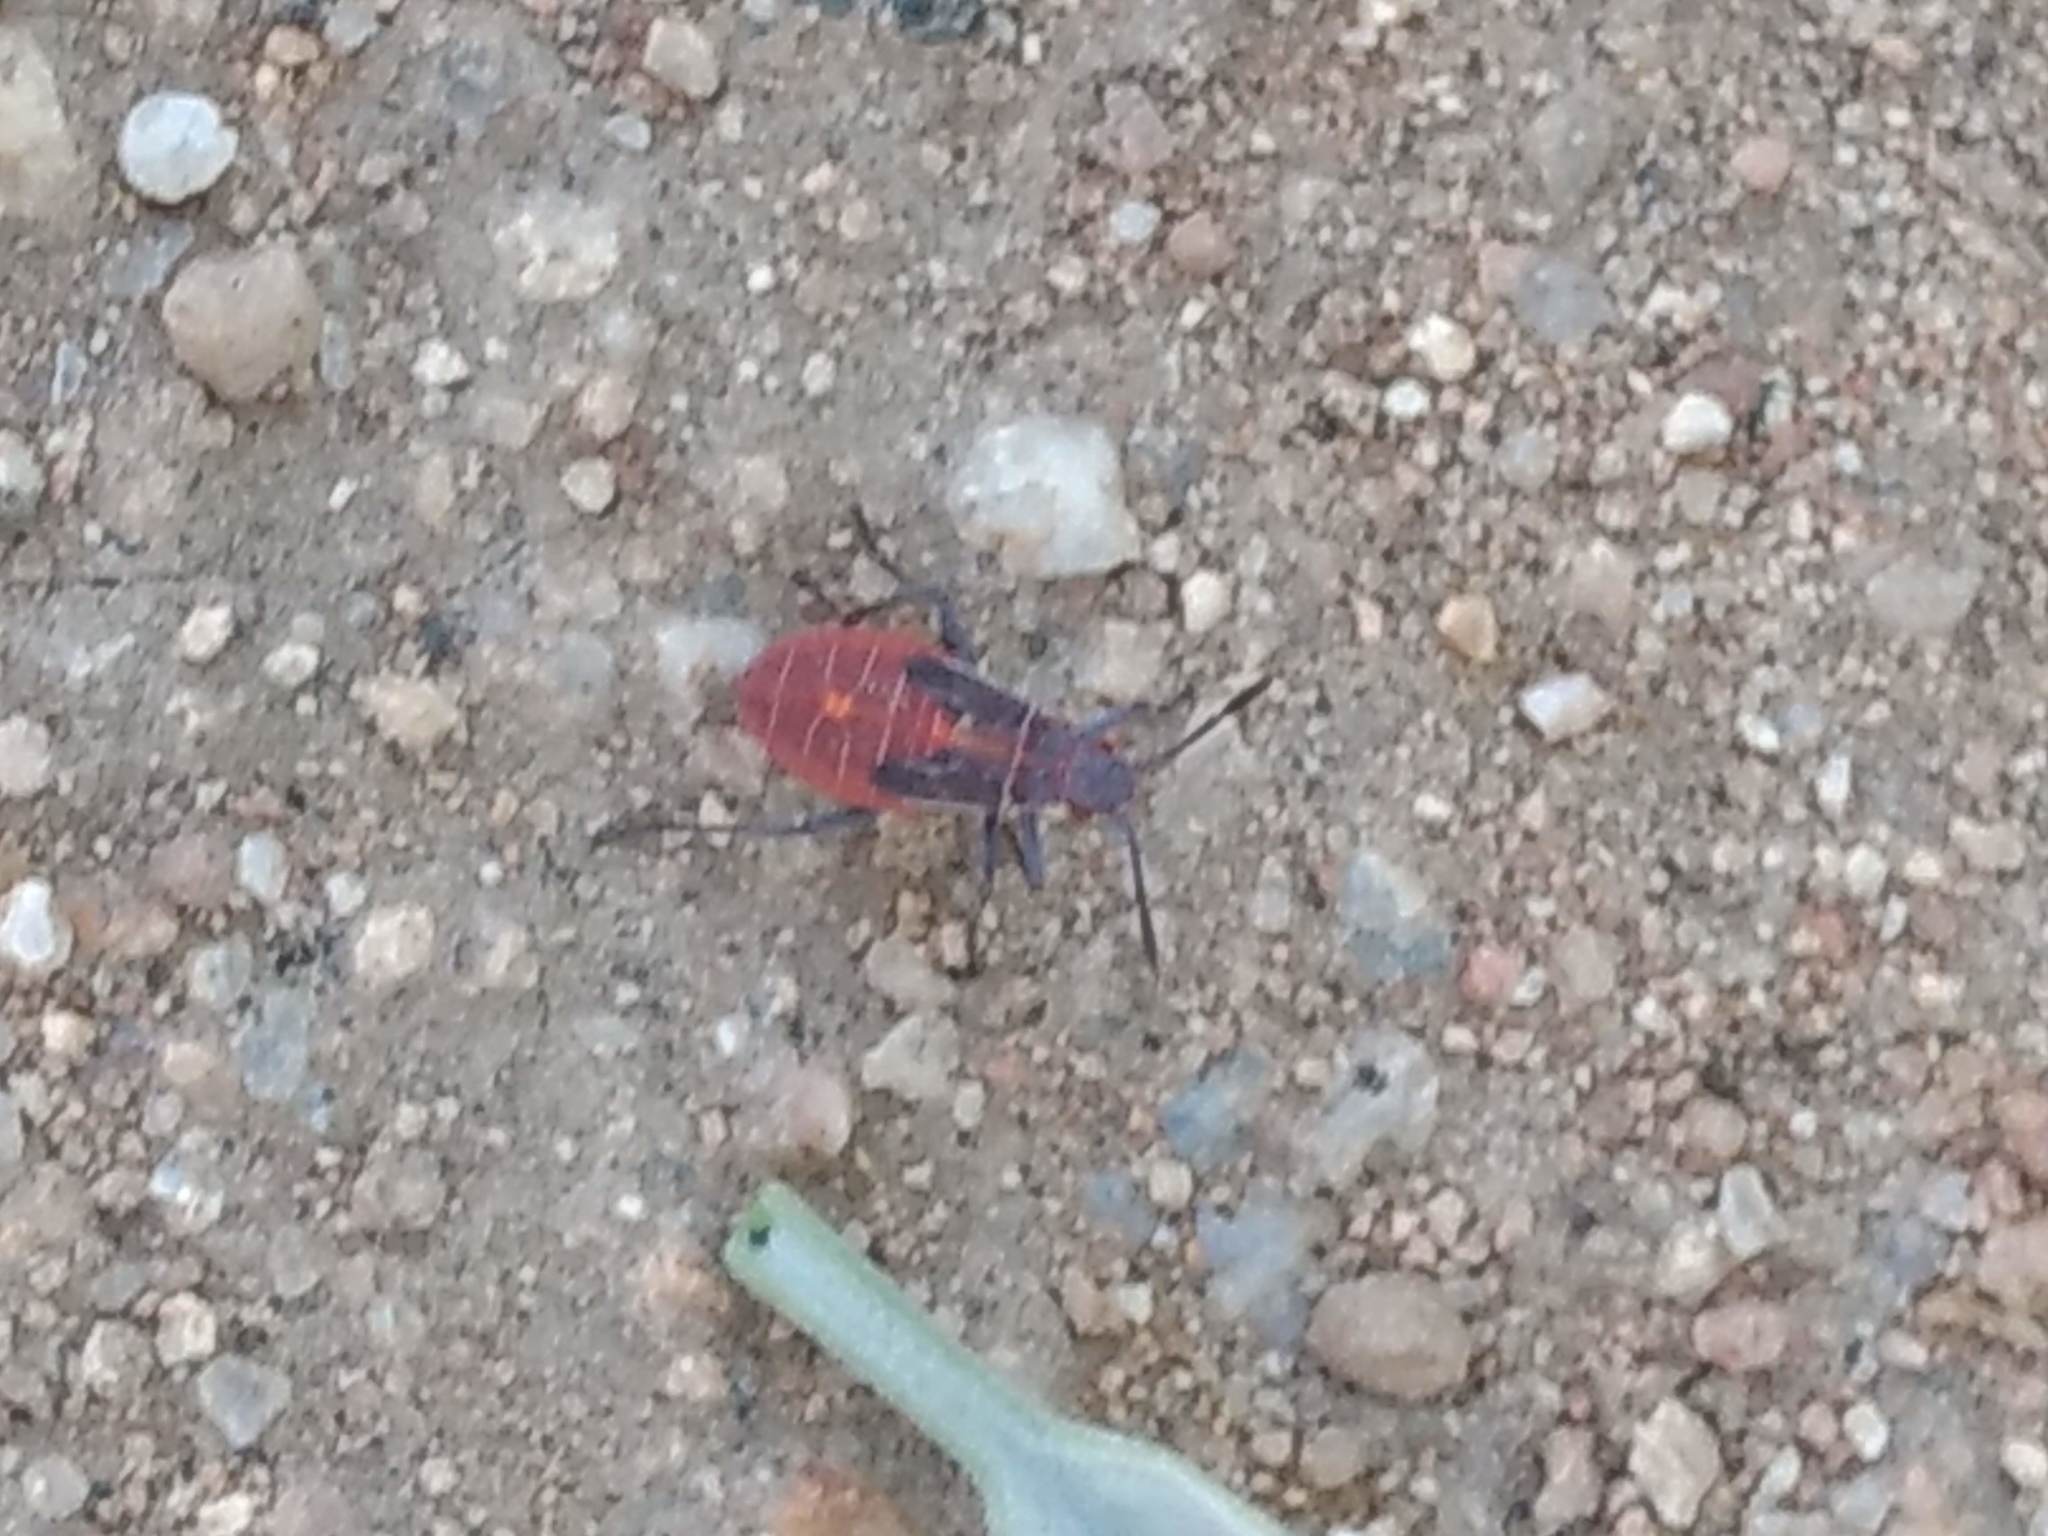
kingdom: Animalia
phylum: Arthropoda
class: Insecta
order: Hemiptera
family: Rhopalidae
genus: Boisea
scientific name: Boisea rubrolineata
